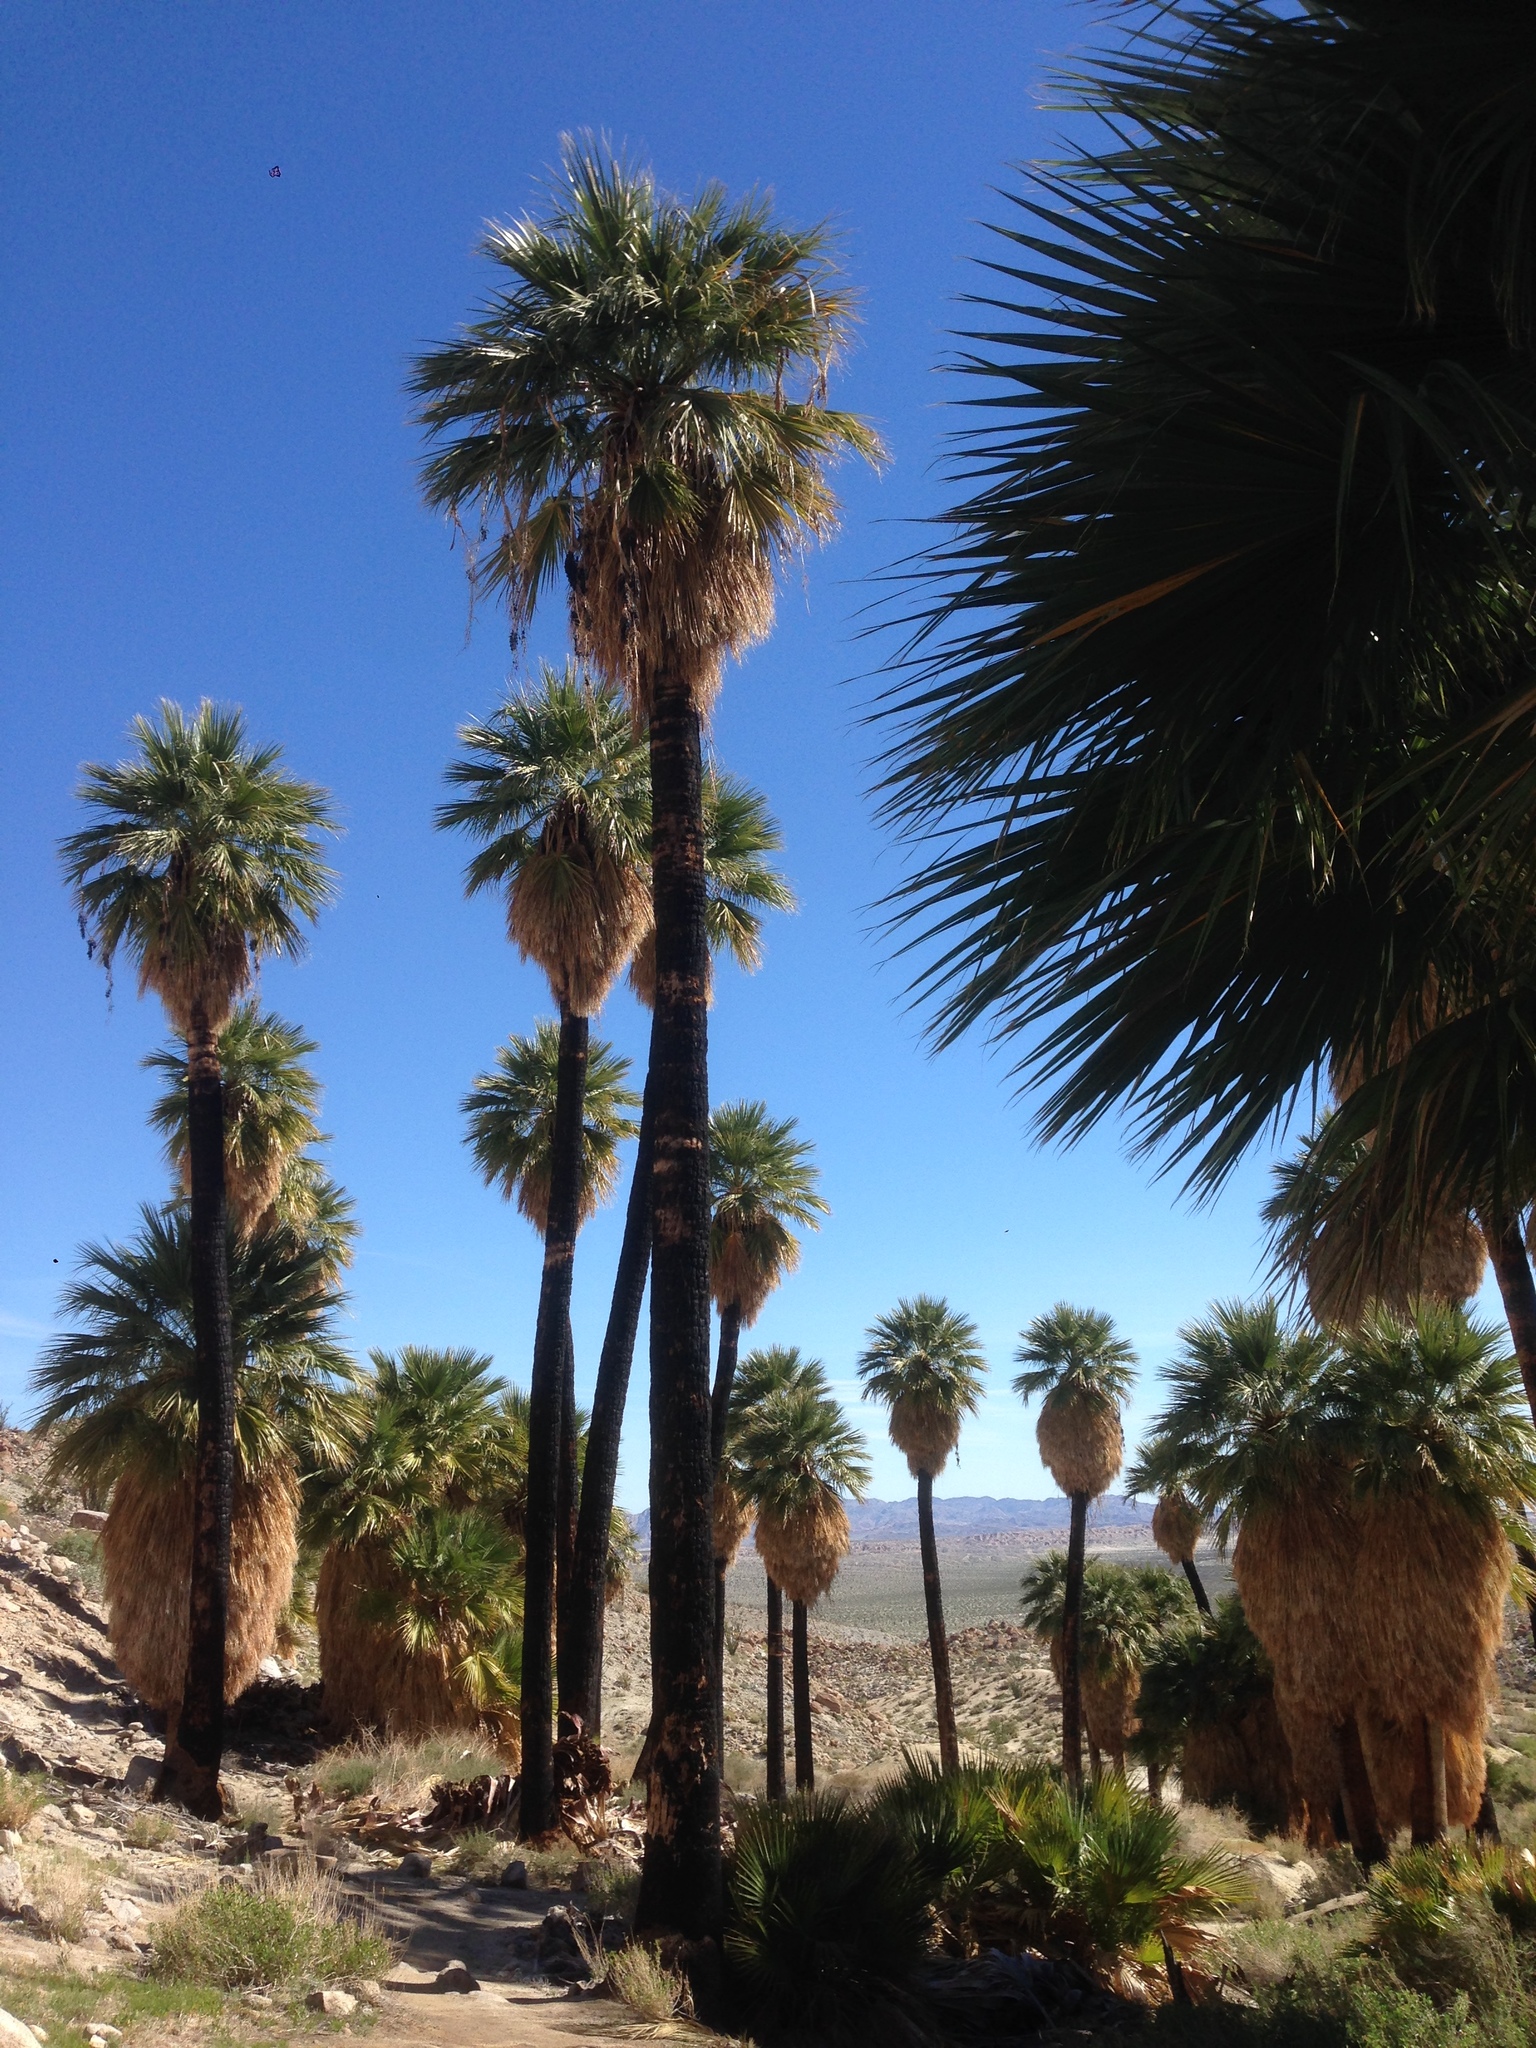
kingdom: Plantae
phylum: Tracheophyta
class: Liliopsida
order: Arecales
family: Arecaceae
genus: Washingtonia
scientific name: Washingtonia filifera
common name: California fan palm
